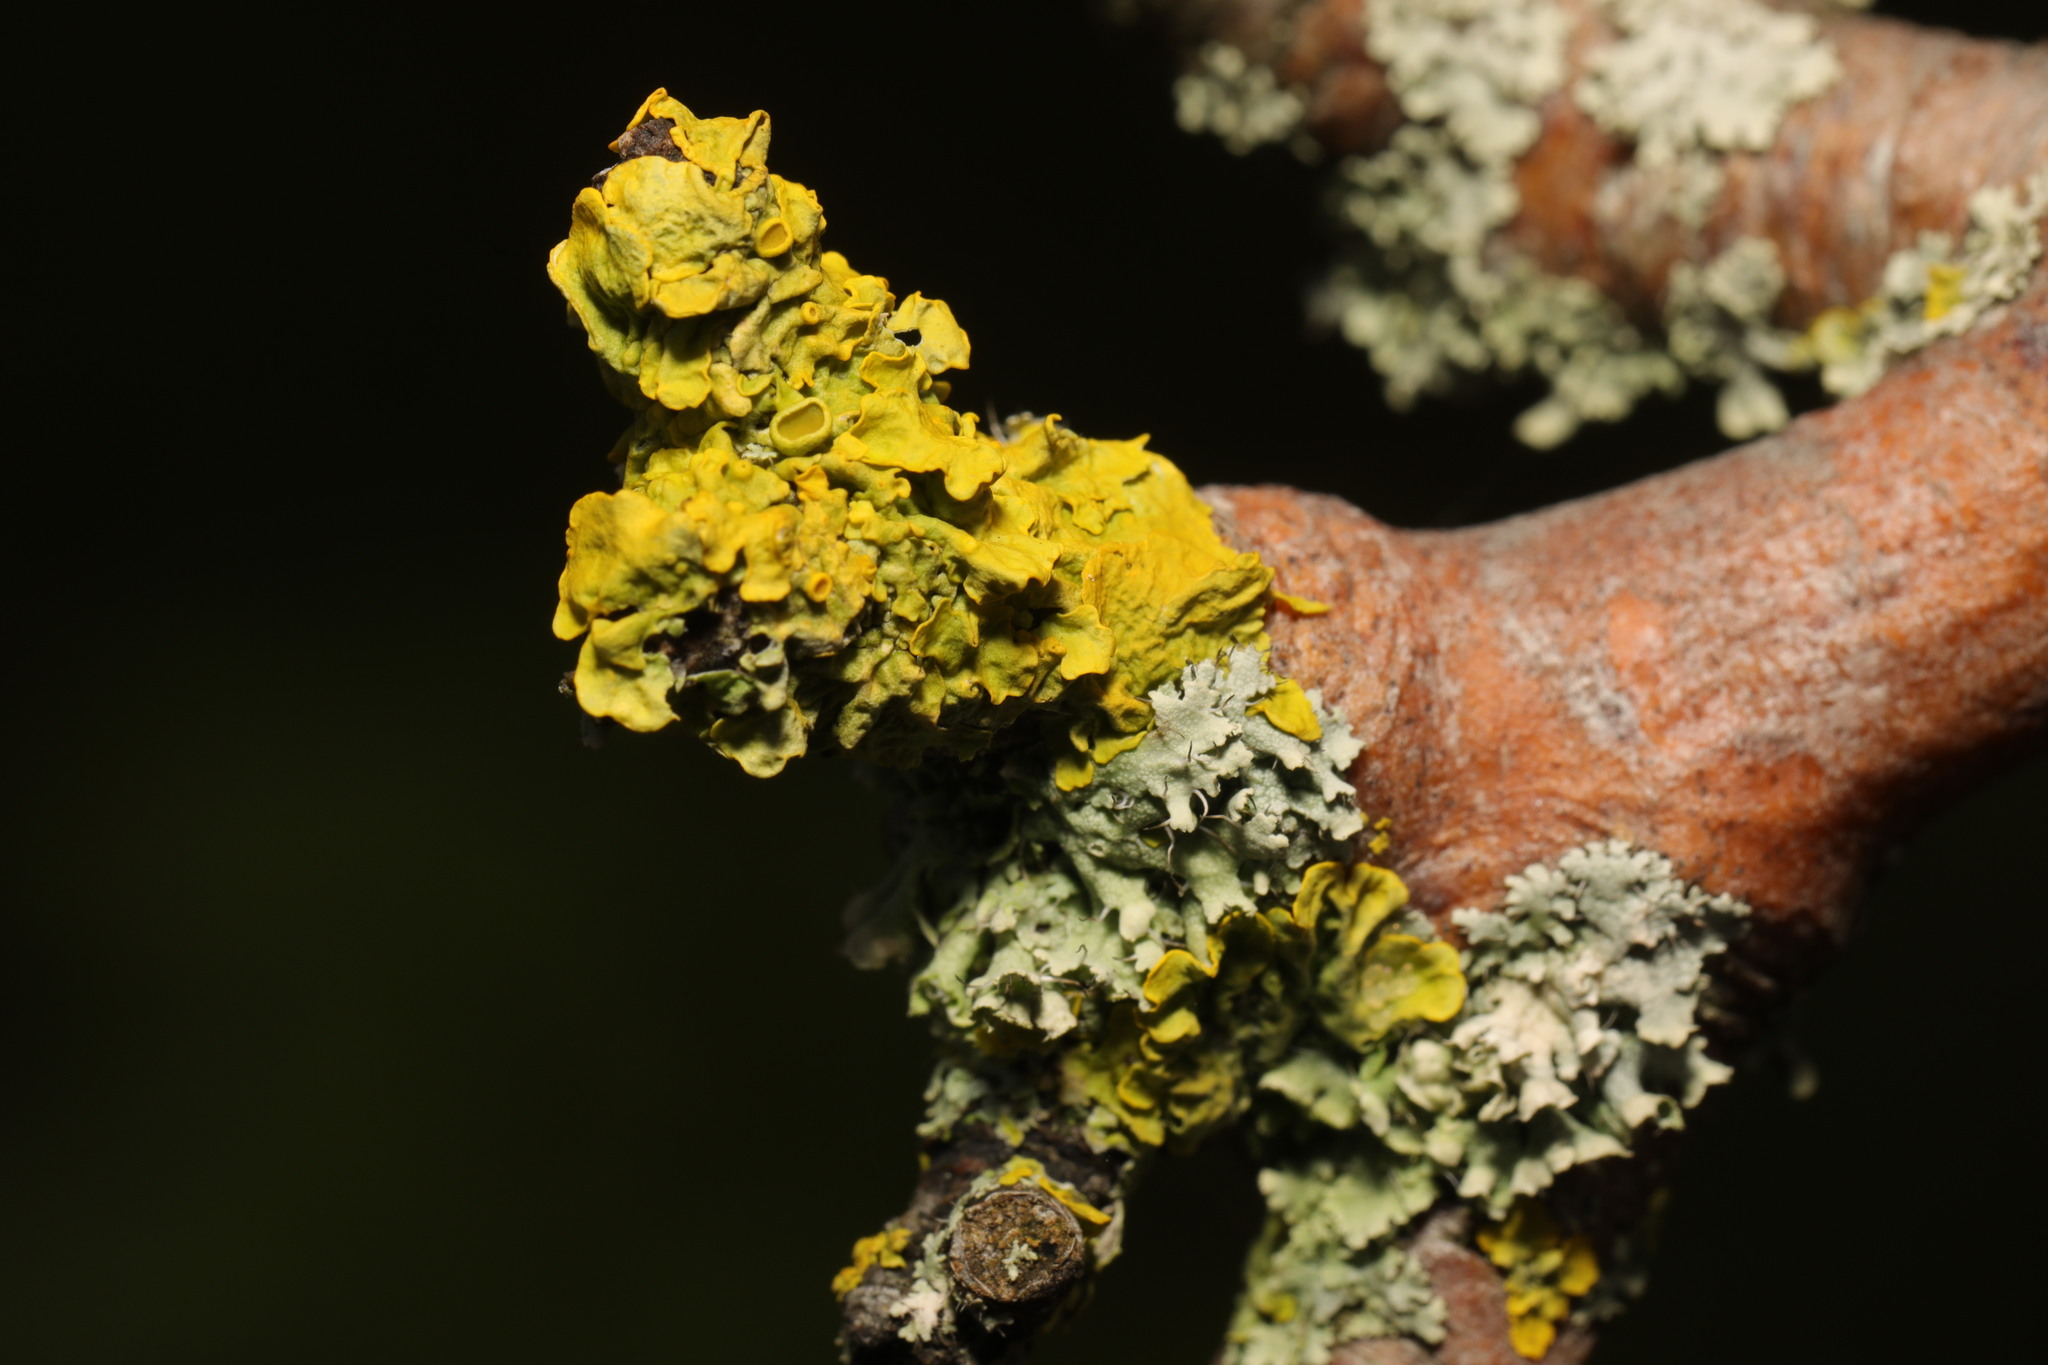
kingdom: Fungi
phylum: Ascomycota
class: Lecanoromycetes
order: Teloschistales
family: Teloschistaceae
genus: Xanthoria
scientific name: Xanthoria parietina
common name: Common orange lichen
